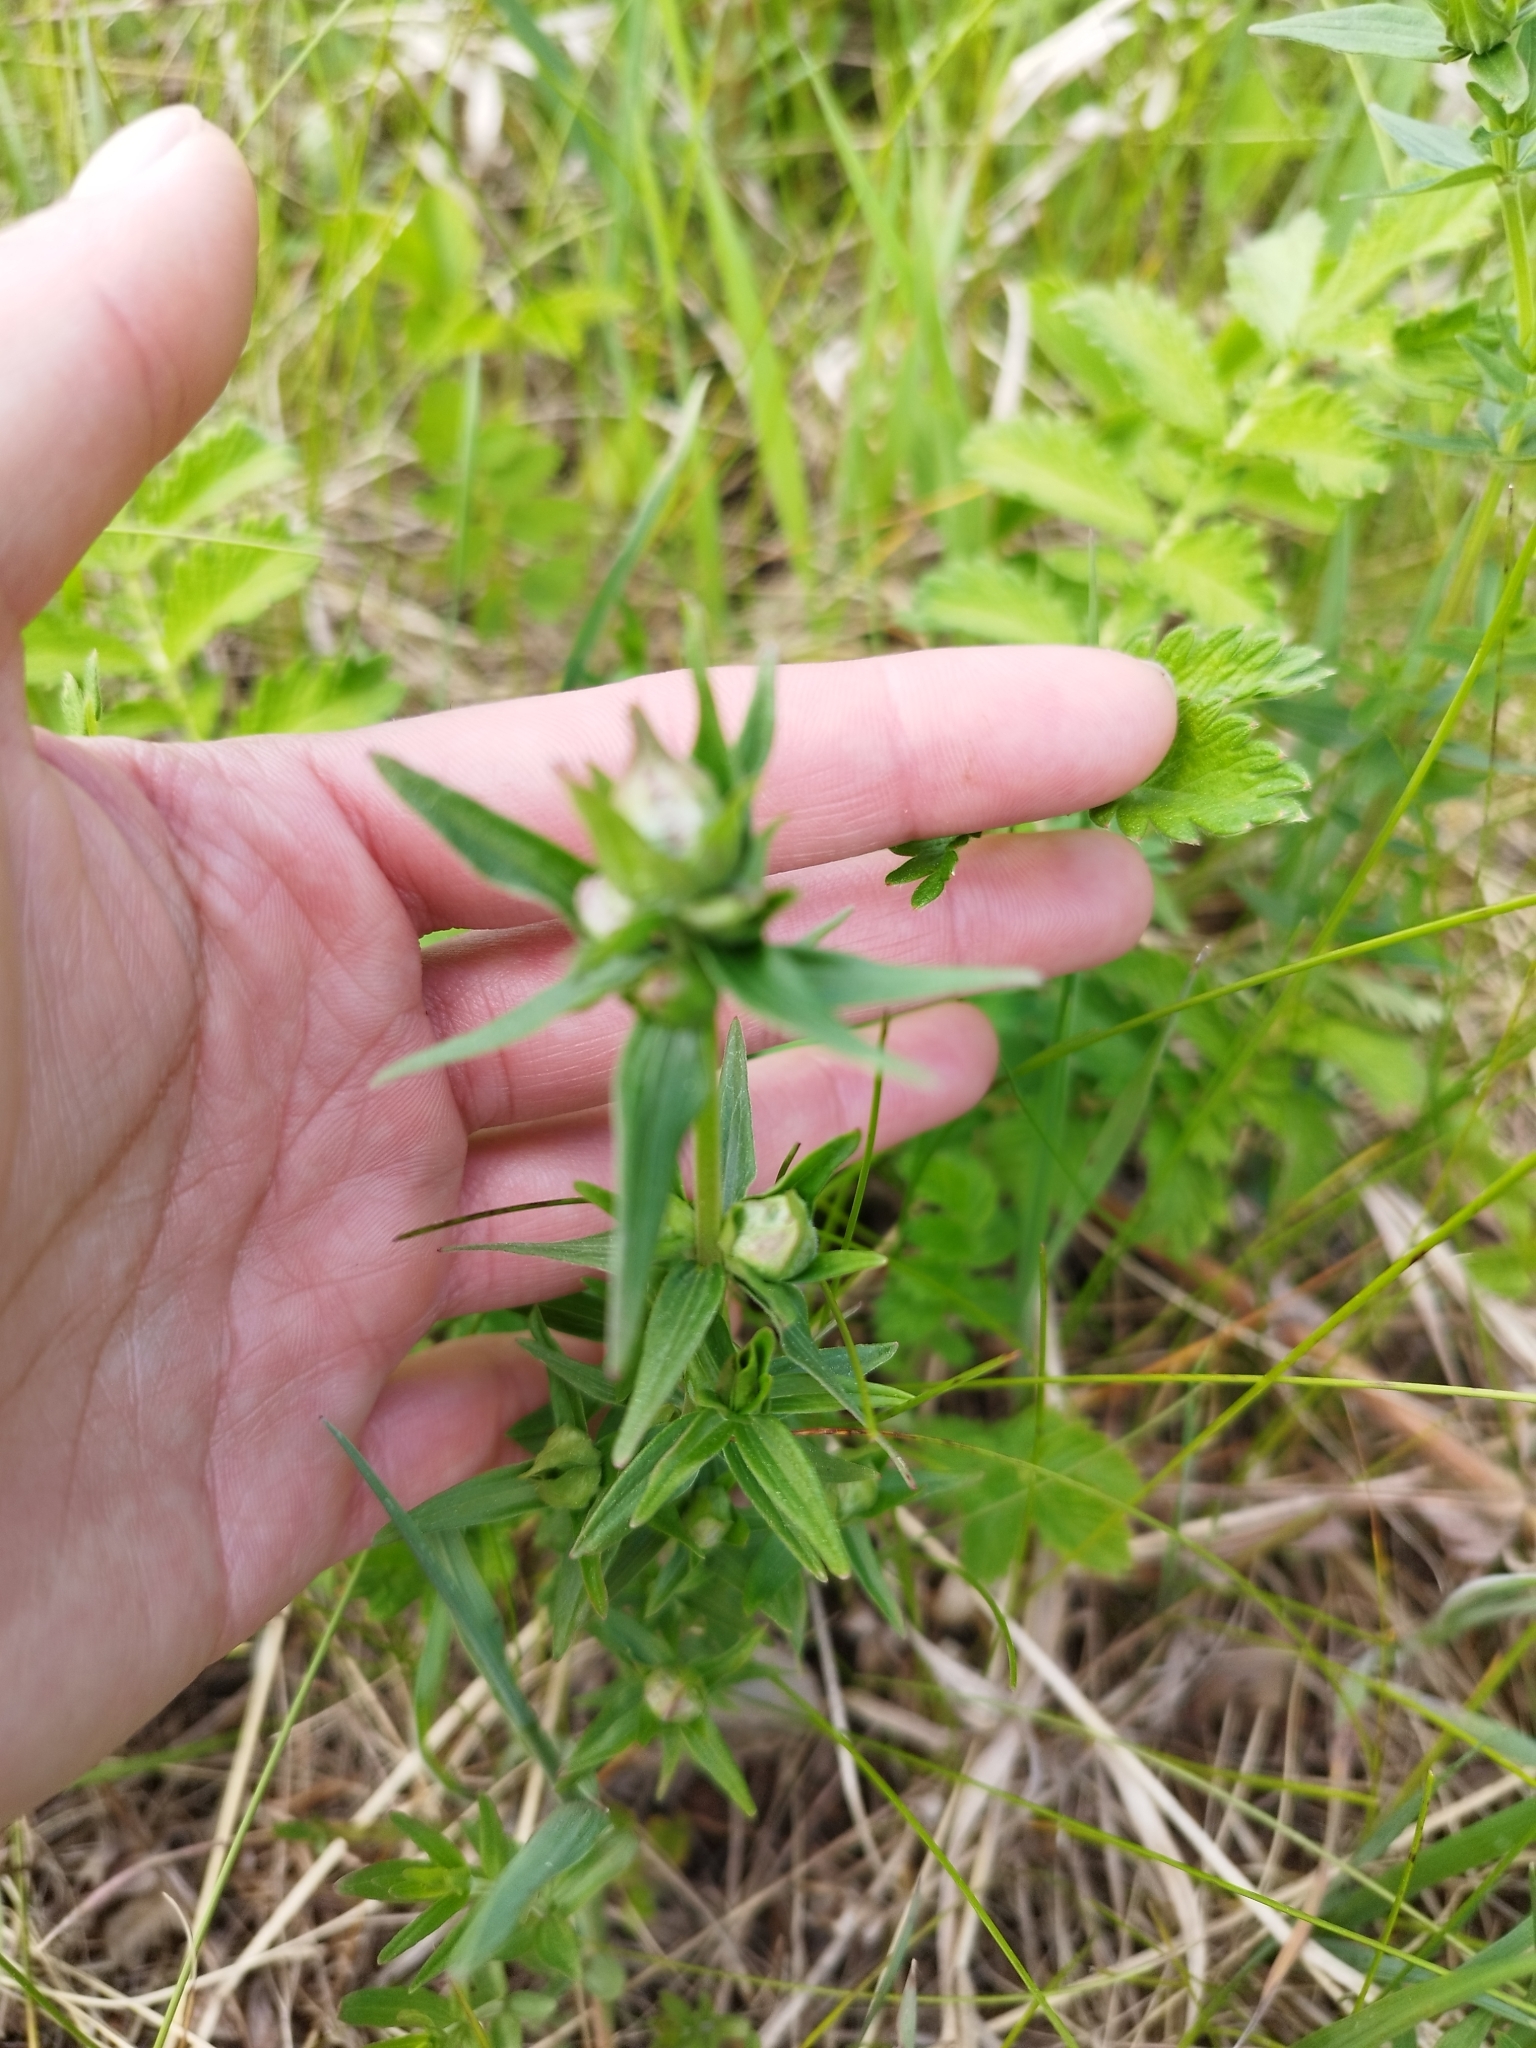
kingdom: Plantae
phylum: Tracheophyta
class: Magnoliopsida
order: Gentianales
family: Rubiaceae
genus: Galium
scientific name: Galium boreale
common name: Northern bedstraw
